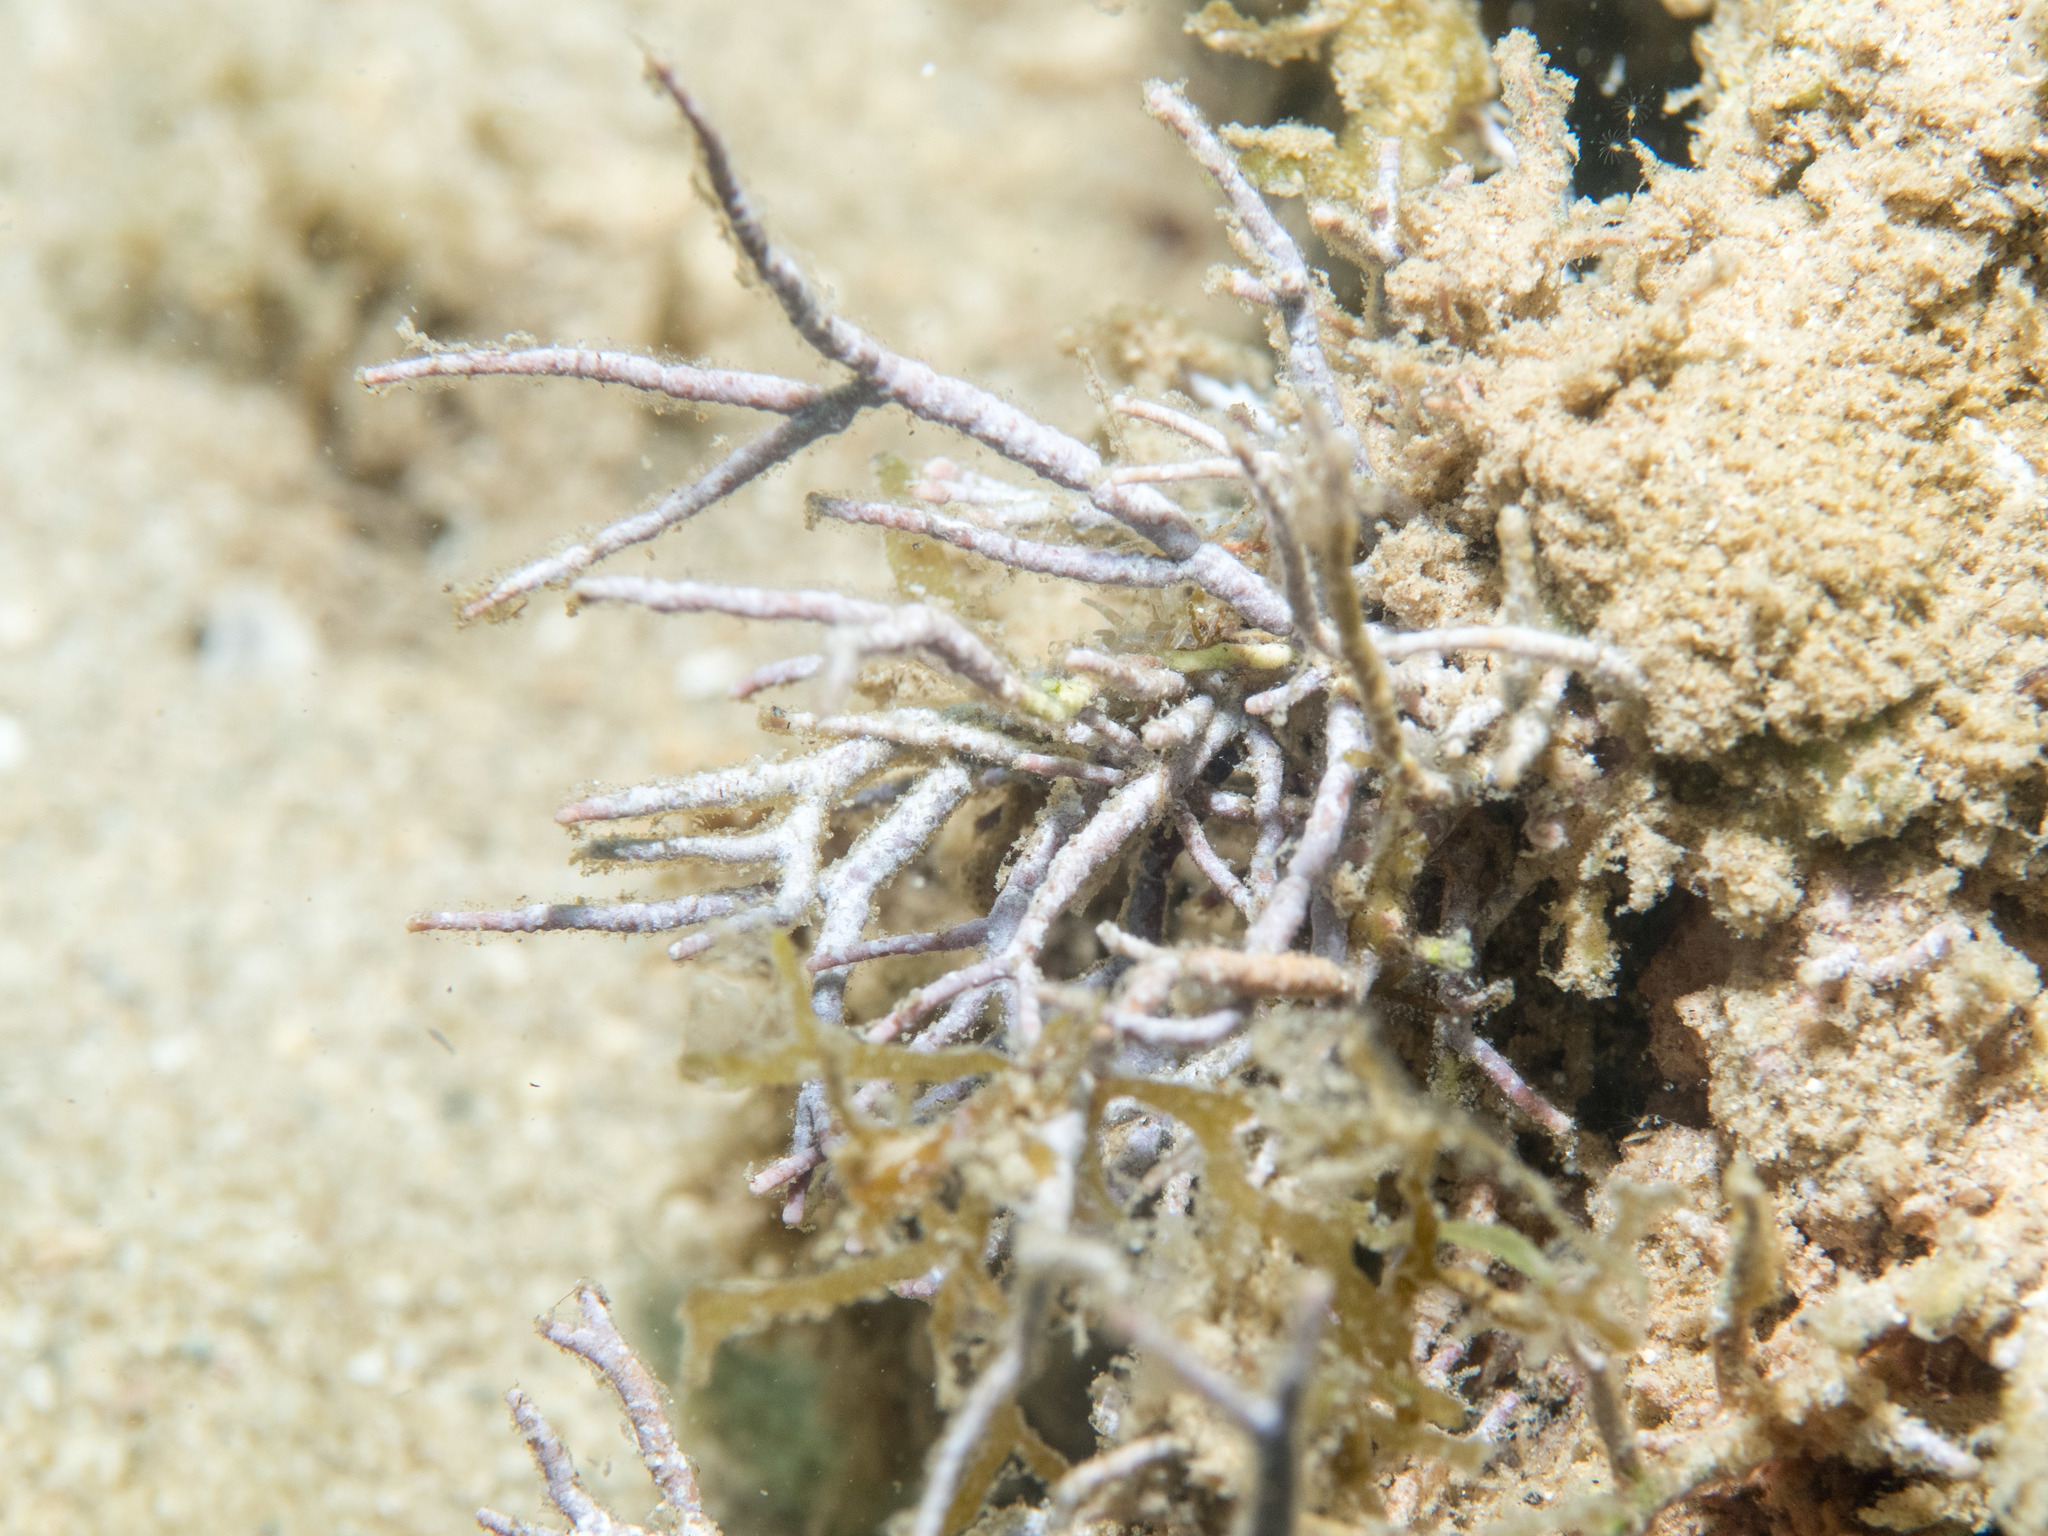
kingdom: Plantae
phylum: Rhodophyta
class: Florideophyceae
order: Corallinales
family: Lithophyllaceae
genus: Amphiroa
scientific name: Amphiroa rigida
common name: Y-twig algae
